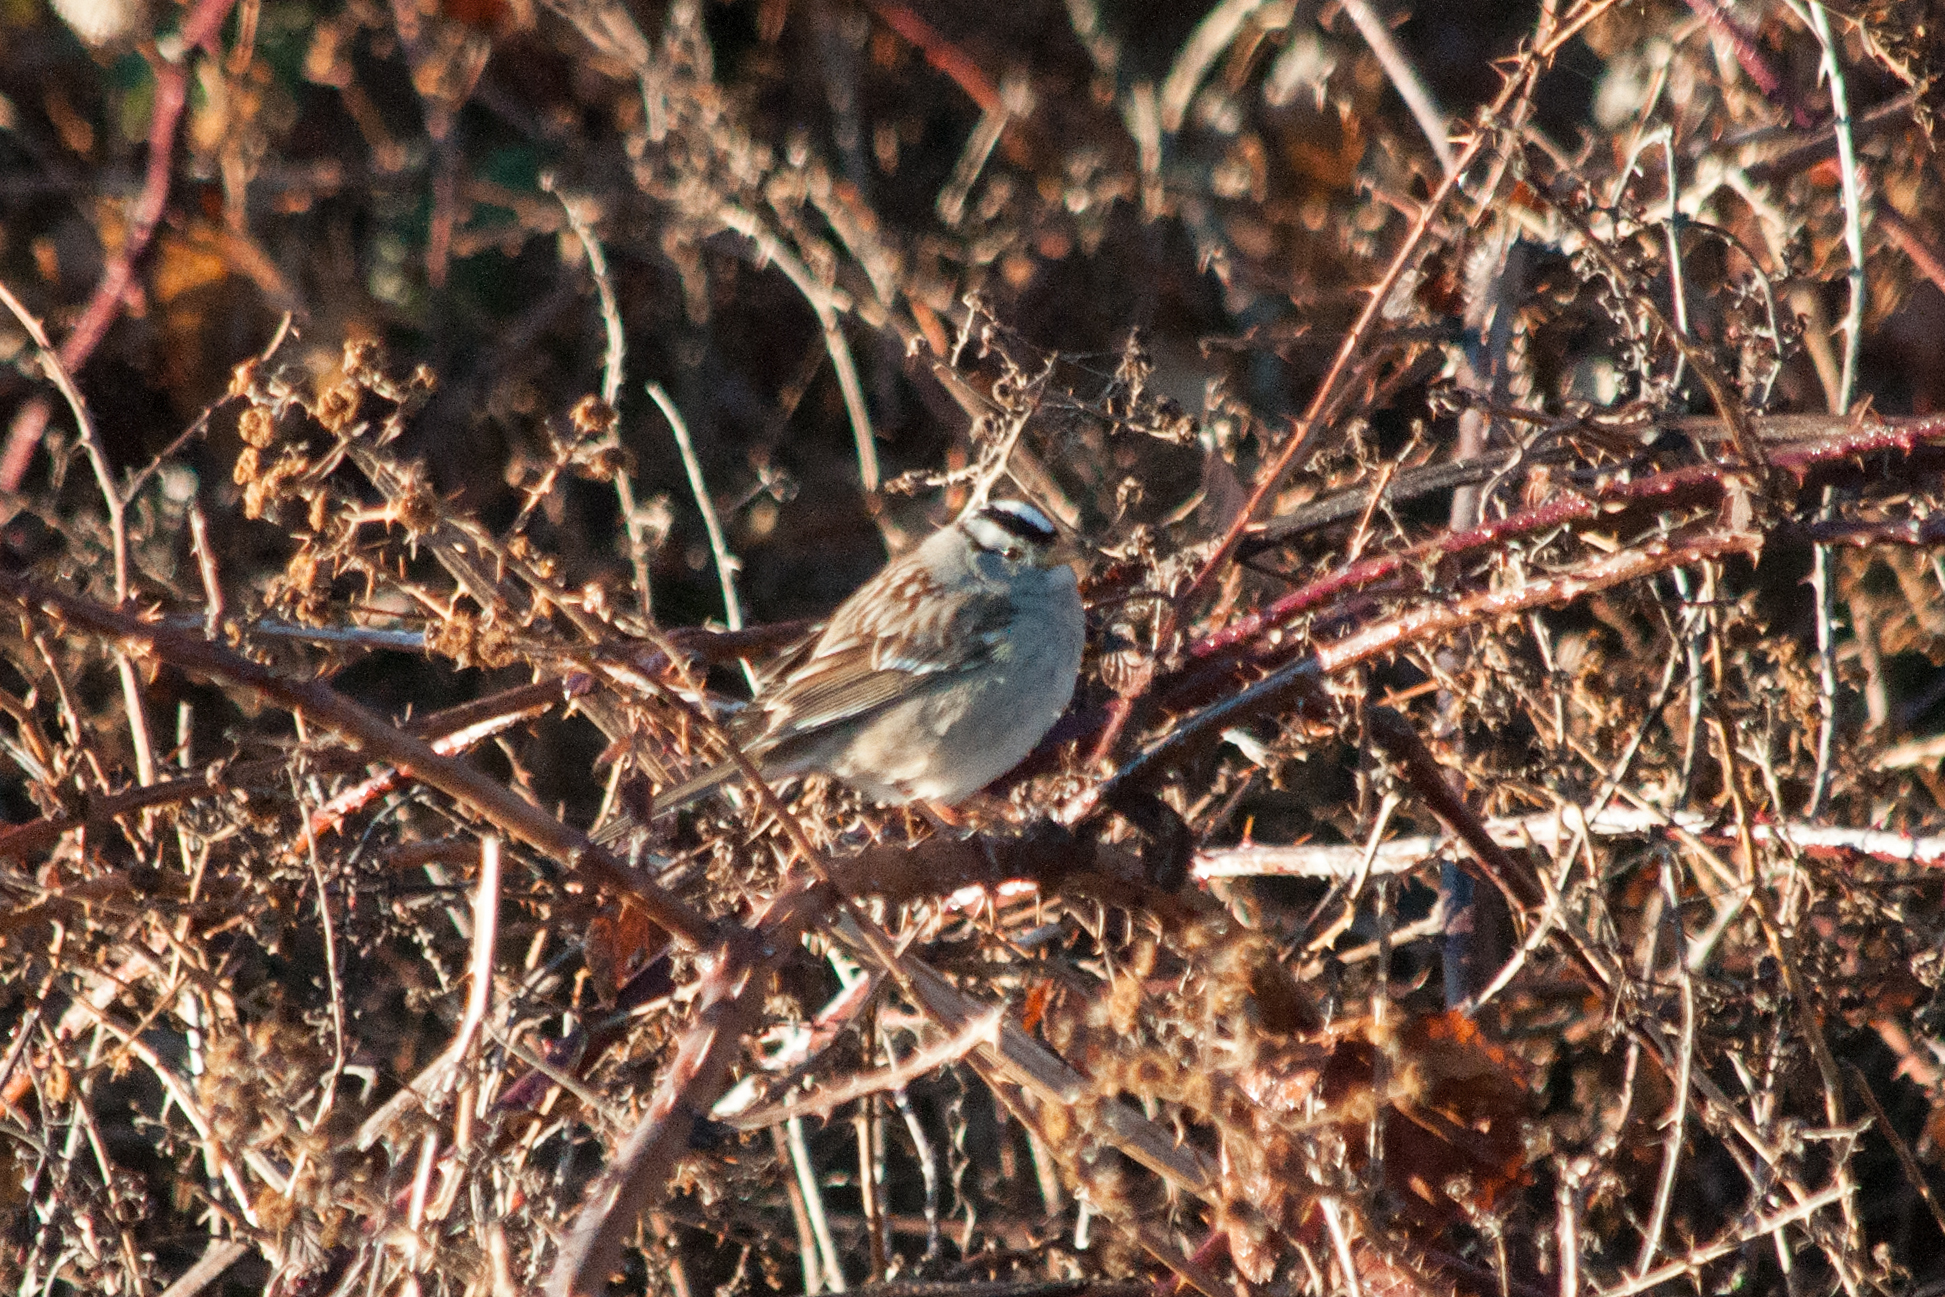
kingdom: Animalia
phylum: Chordata
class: Aves
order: Passeriformes
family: Passerellidae
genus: Zonotrichia
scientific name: Zonotrichia leucophrys
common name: White-crowned sparrow
